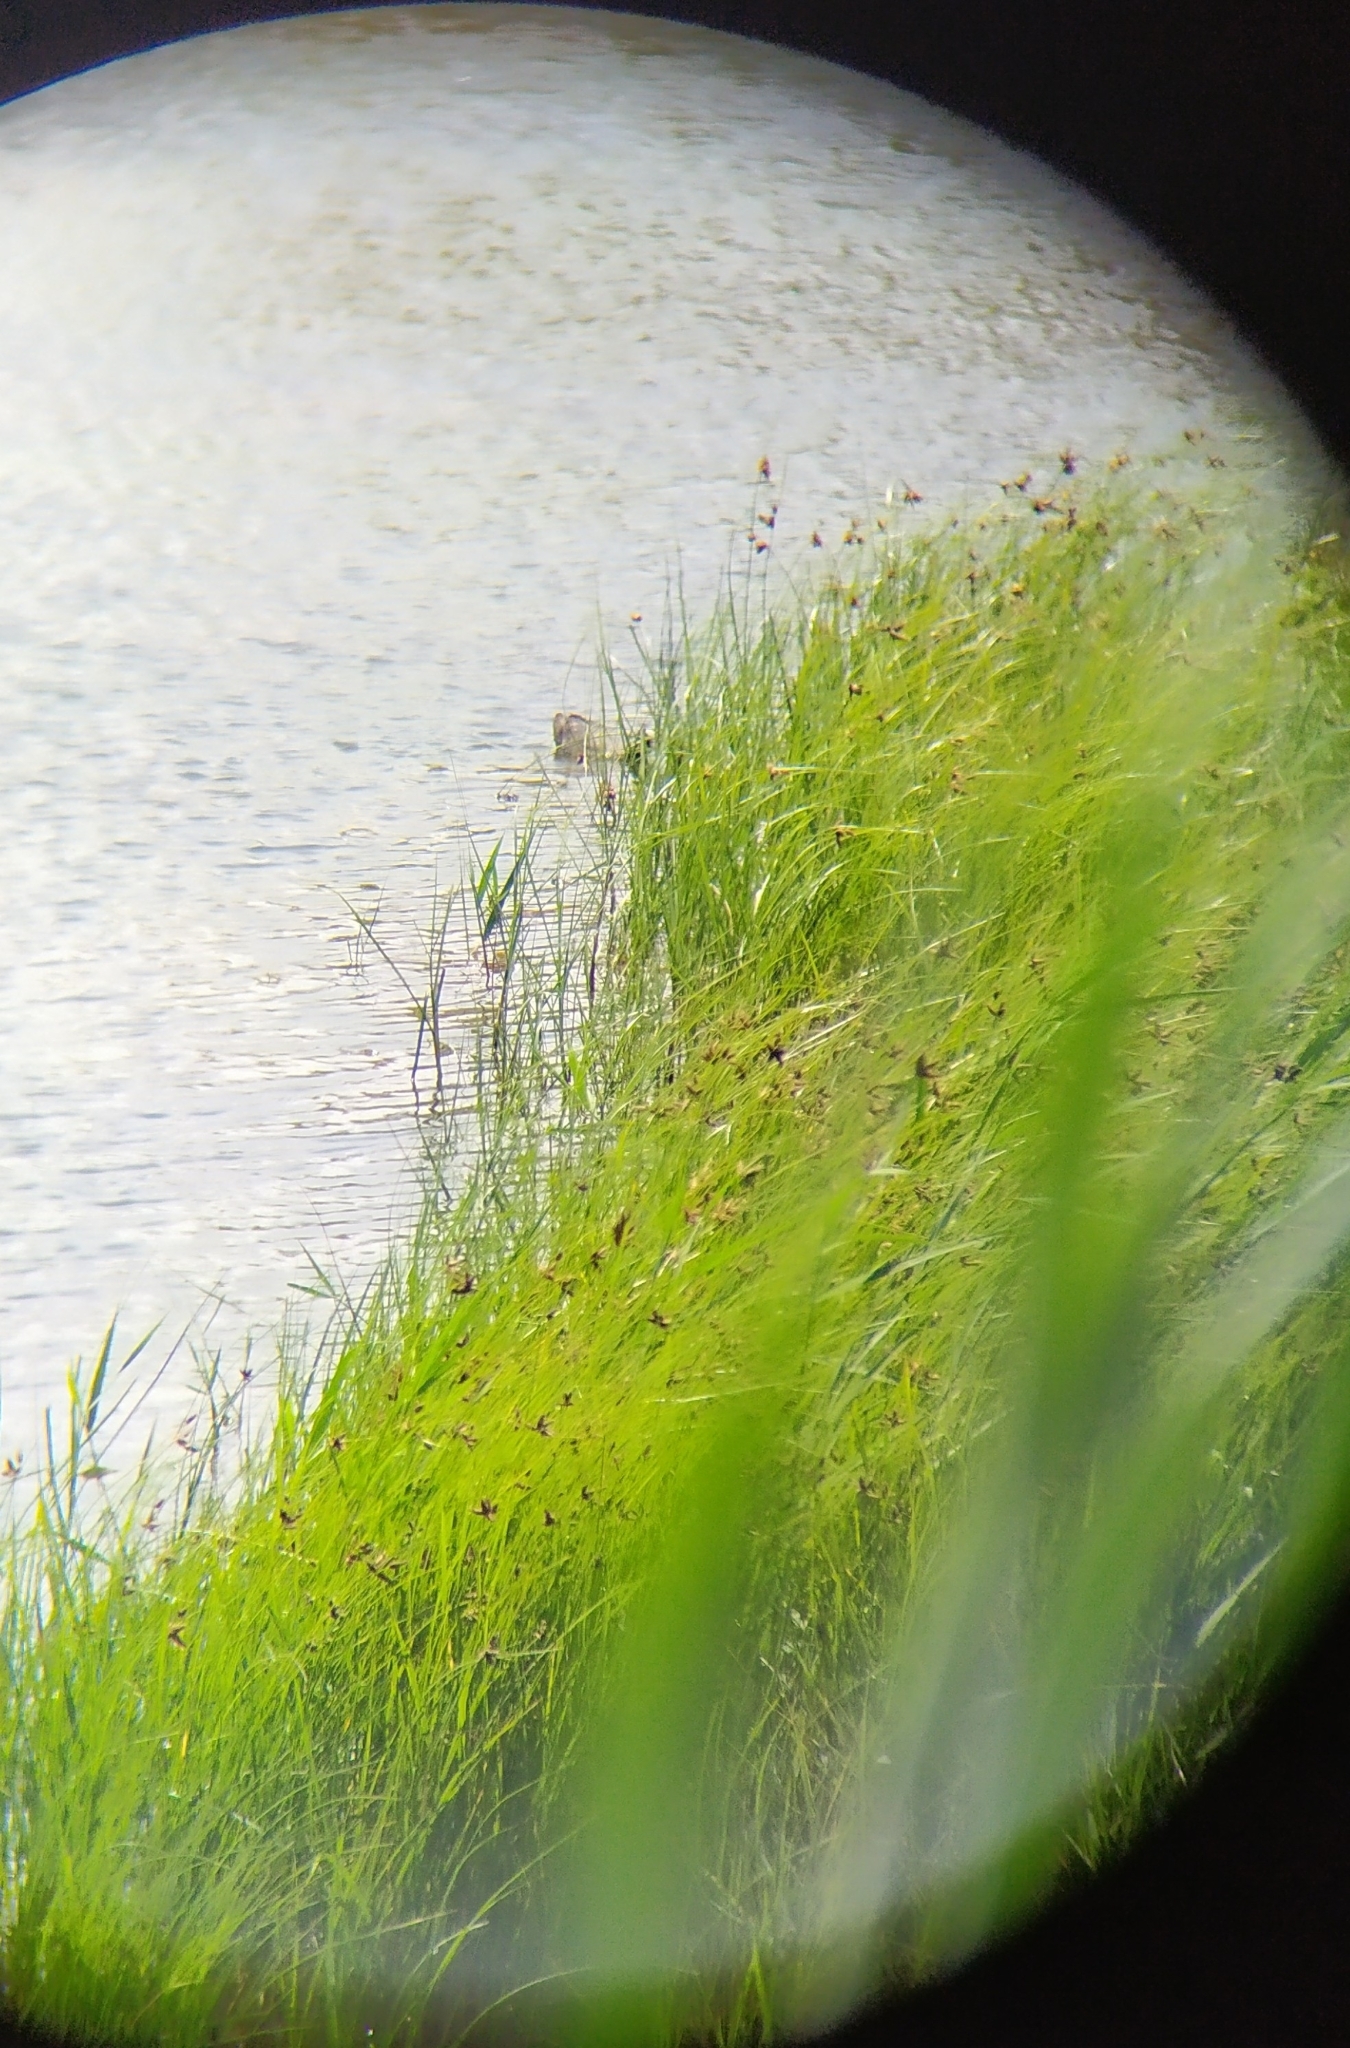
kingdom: Animalia
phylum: Chordata
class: Aves
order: Gruiformes
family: Rallidae
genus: Fulica
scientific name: Fulica atra
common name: Eurasian coot
